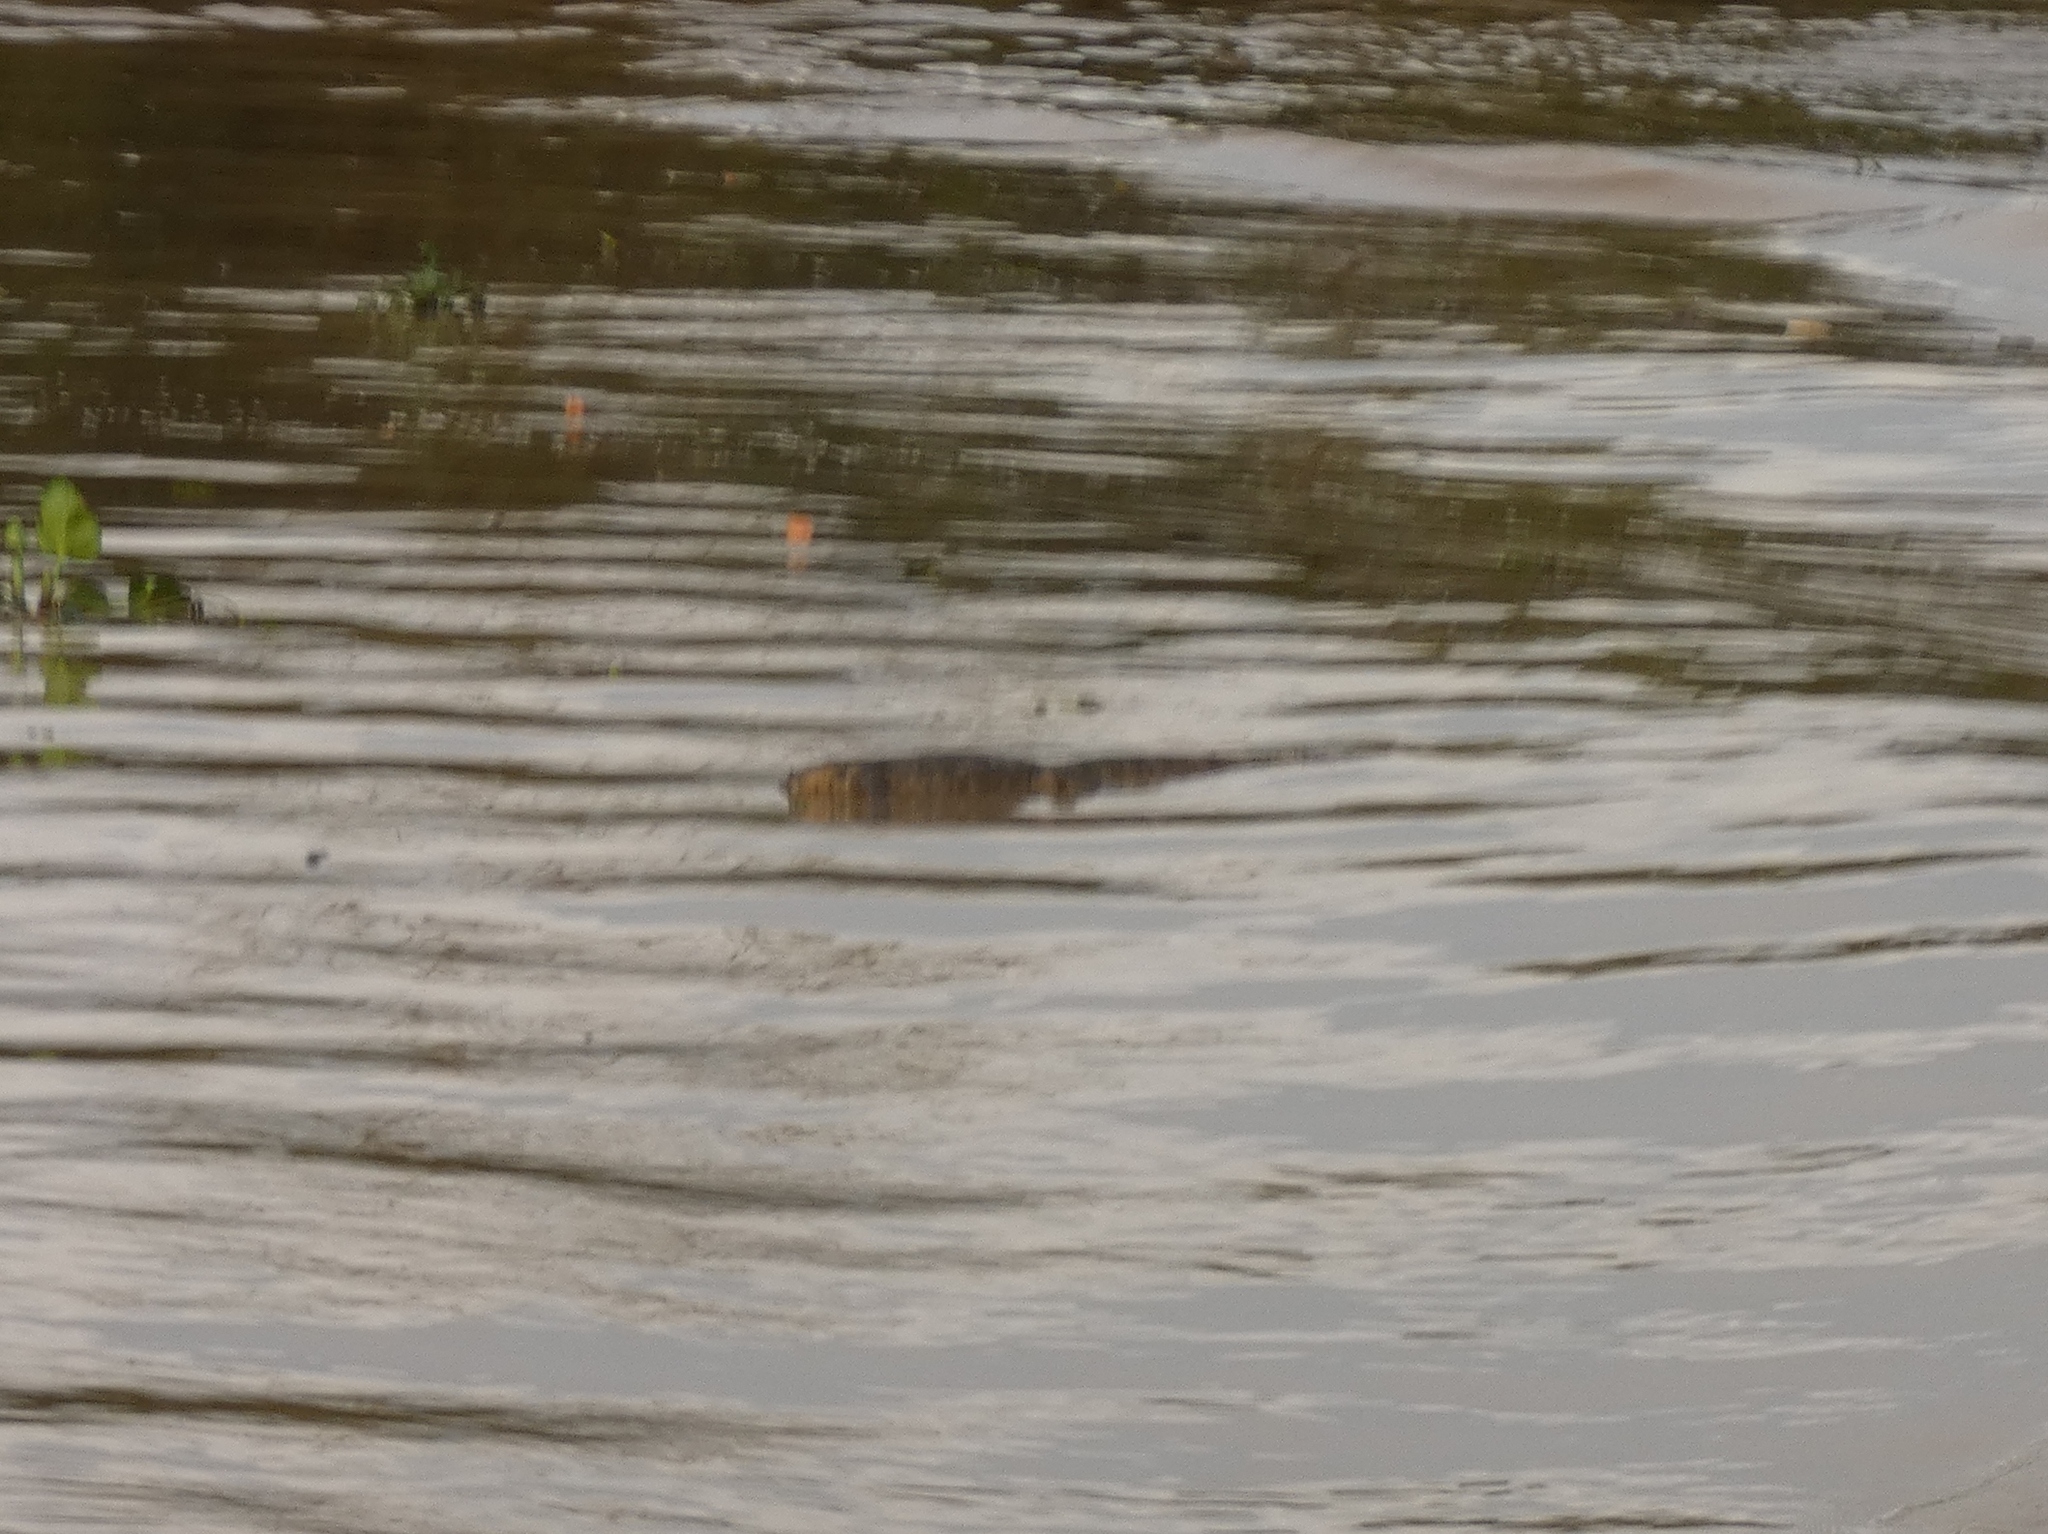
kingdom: Animalia
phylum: Chordata
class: Squamata
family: Varanidae
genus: Varanus
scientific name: Varanus salvator
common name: Common water monitor
